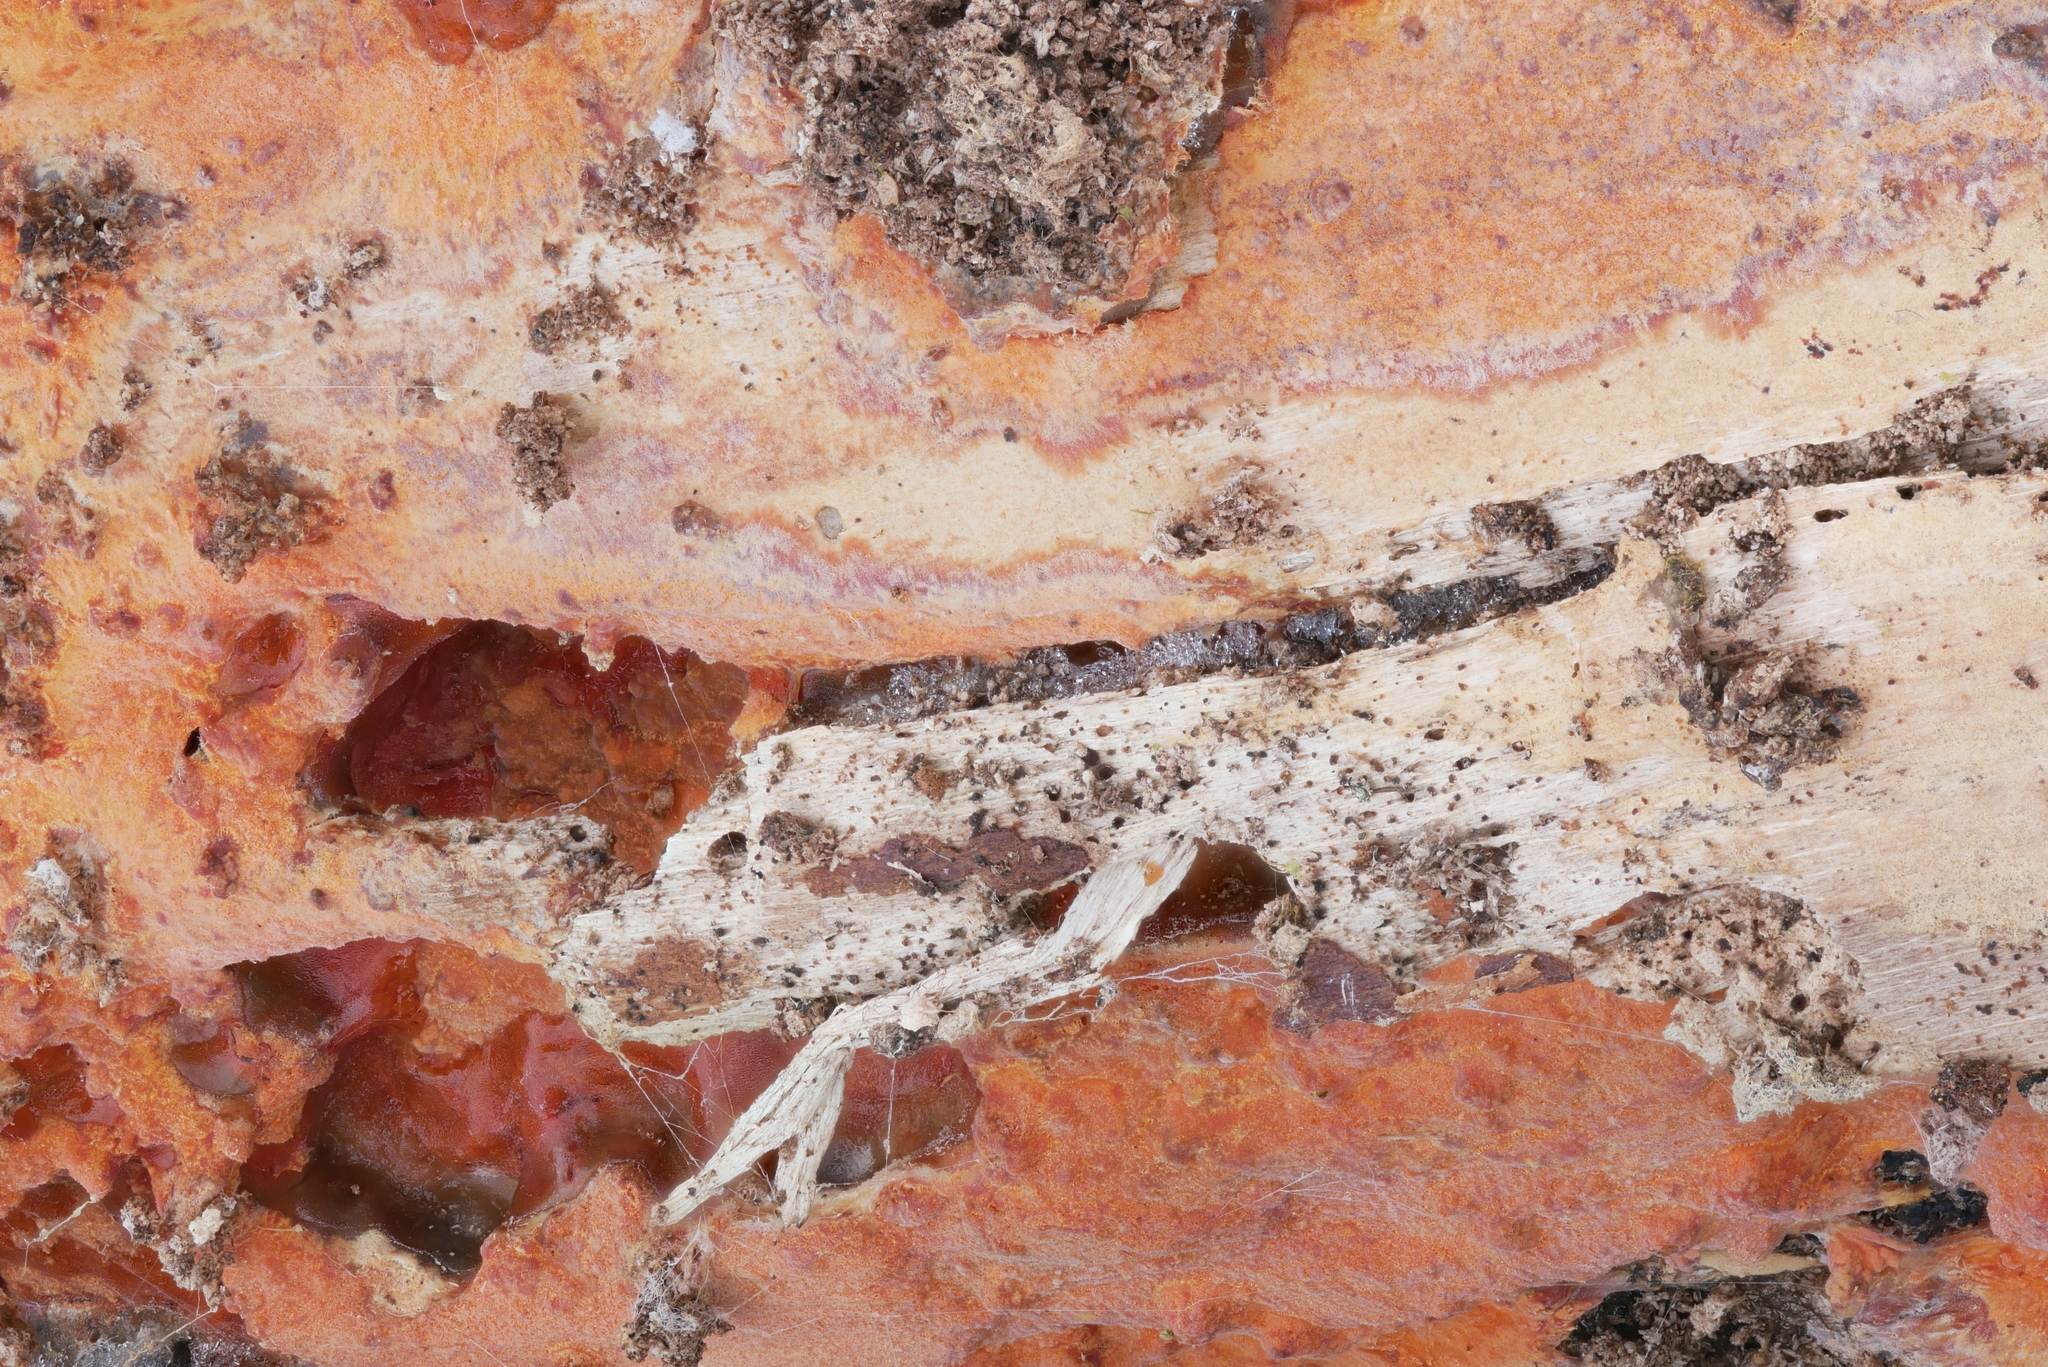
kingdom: Fungi
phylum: Basidiomycota
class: Agaricomycetes
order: Polyporales
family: Meruliaceae
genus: Phlebia
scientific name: Phlebia coccineofulva
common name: Scarlet waxcrust
